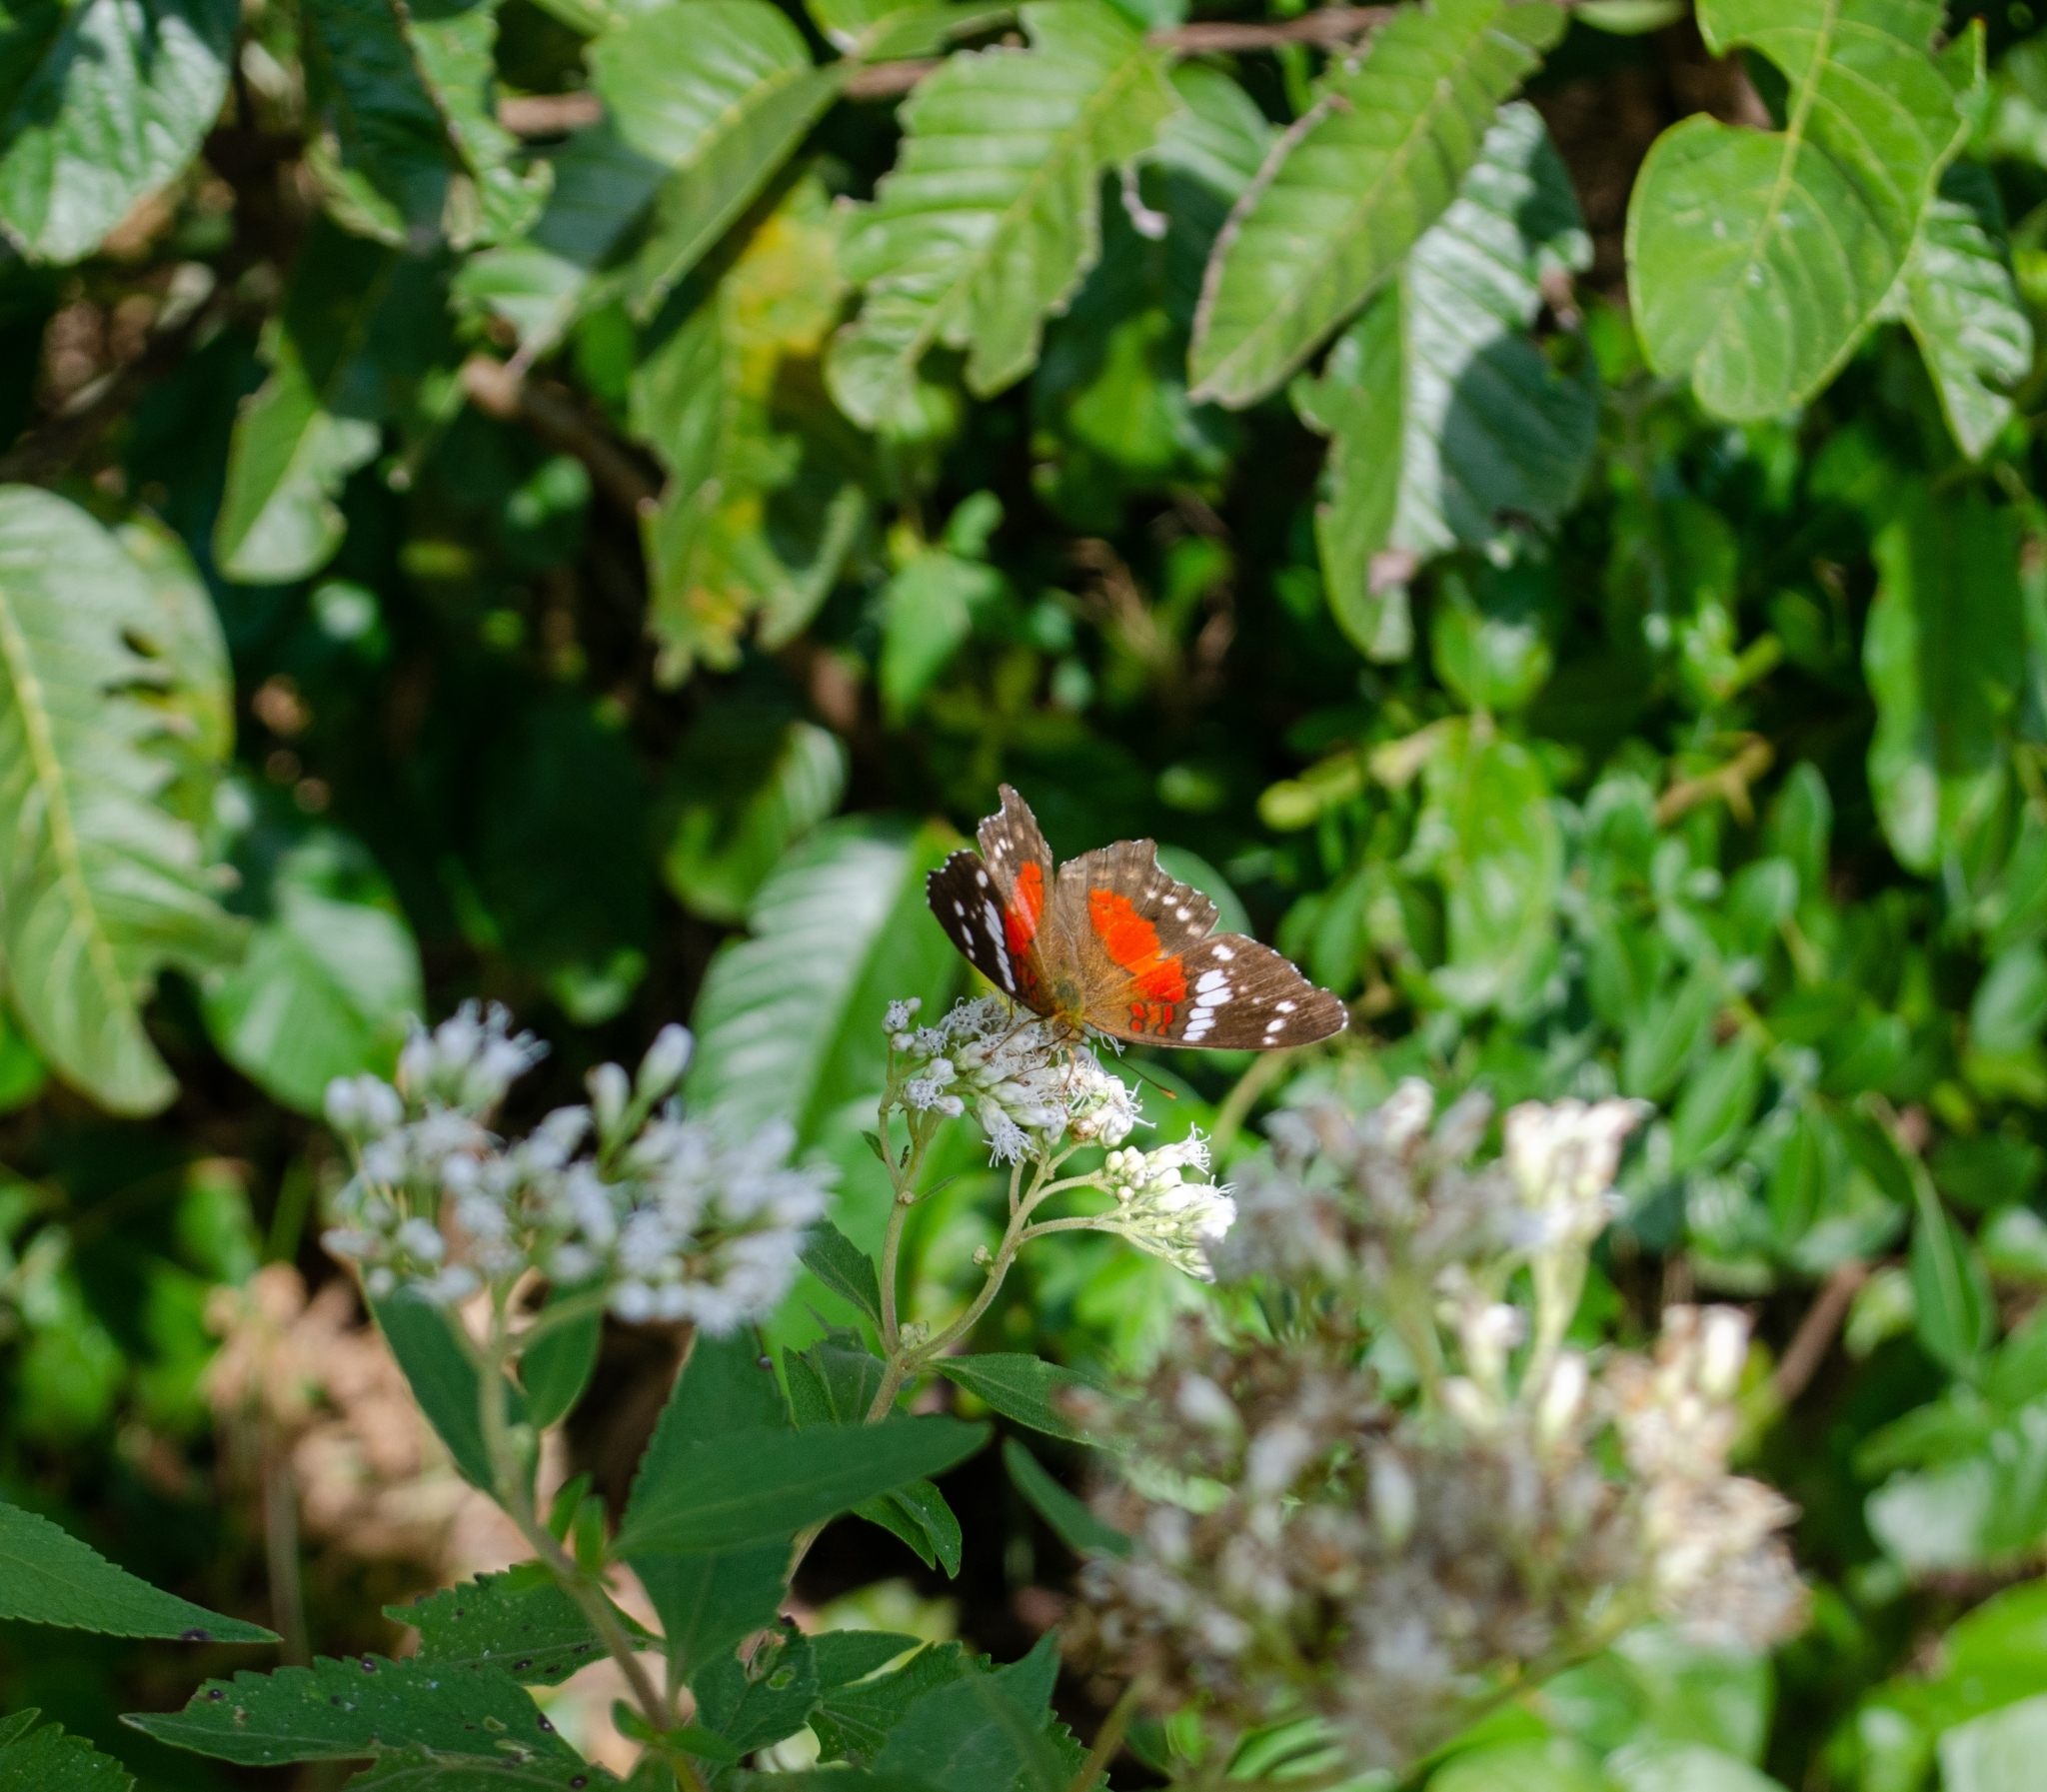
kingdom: Animalia
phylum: Arthropoda
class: Insecta
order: Lepidoptera
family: Nymphalidae
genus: Anartia
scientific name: Anartia amathea
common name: Red peacock
